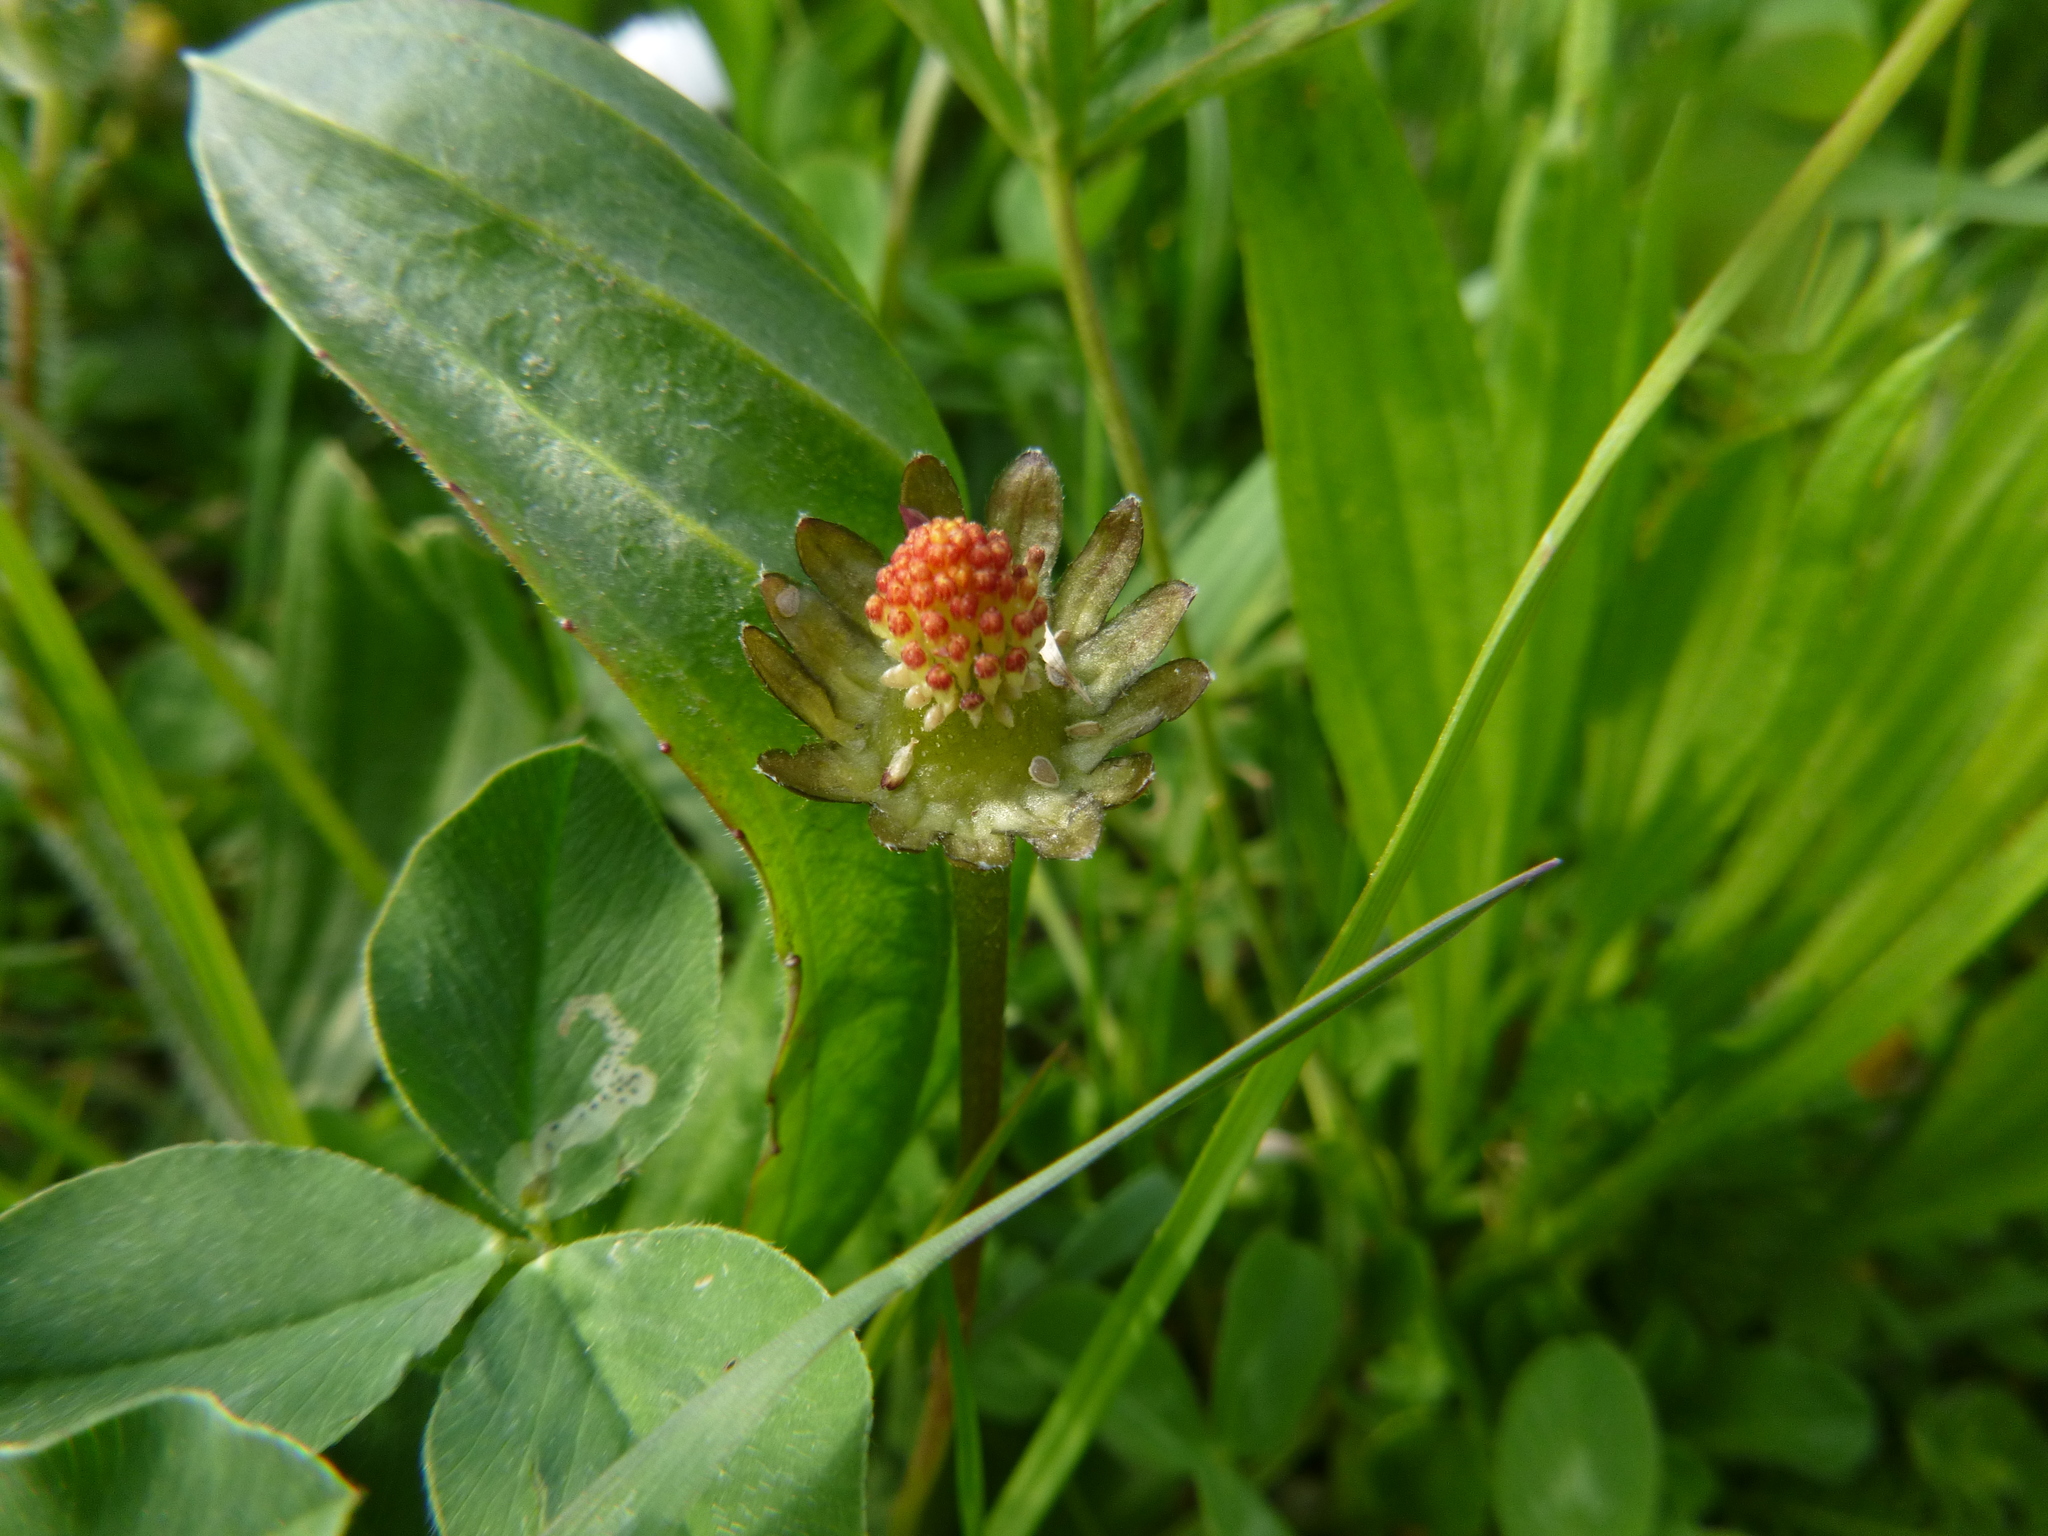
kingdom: Plantae
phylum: Tracheophyta
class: Magnoliopsida
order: Asterales
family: Asteraceae
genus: Bellis
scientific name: Bellis perennis
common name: Lawndaisy
